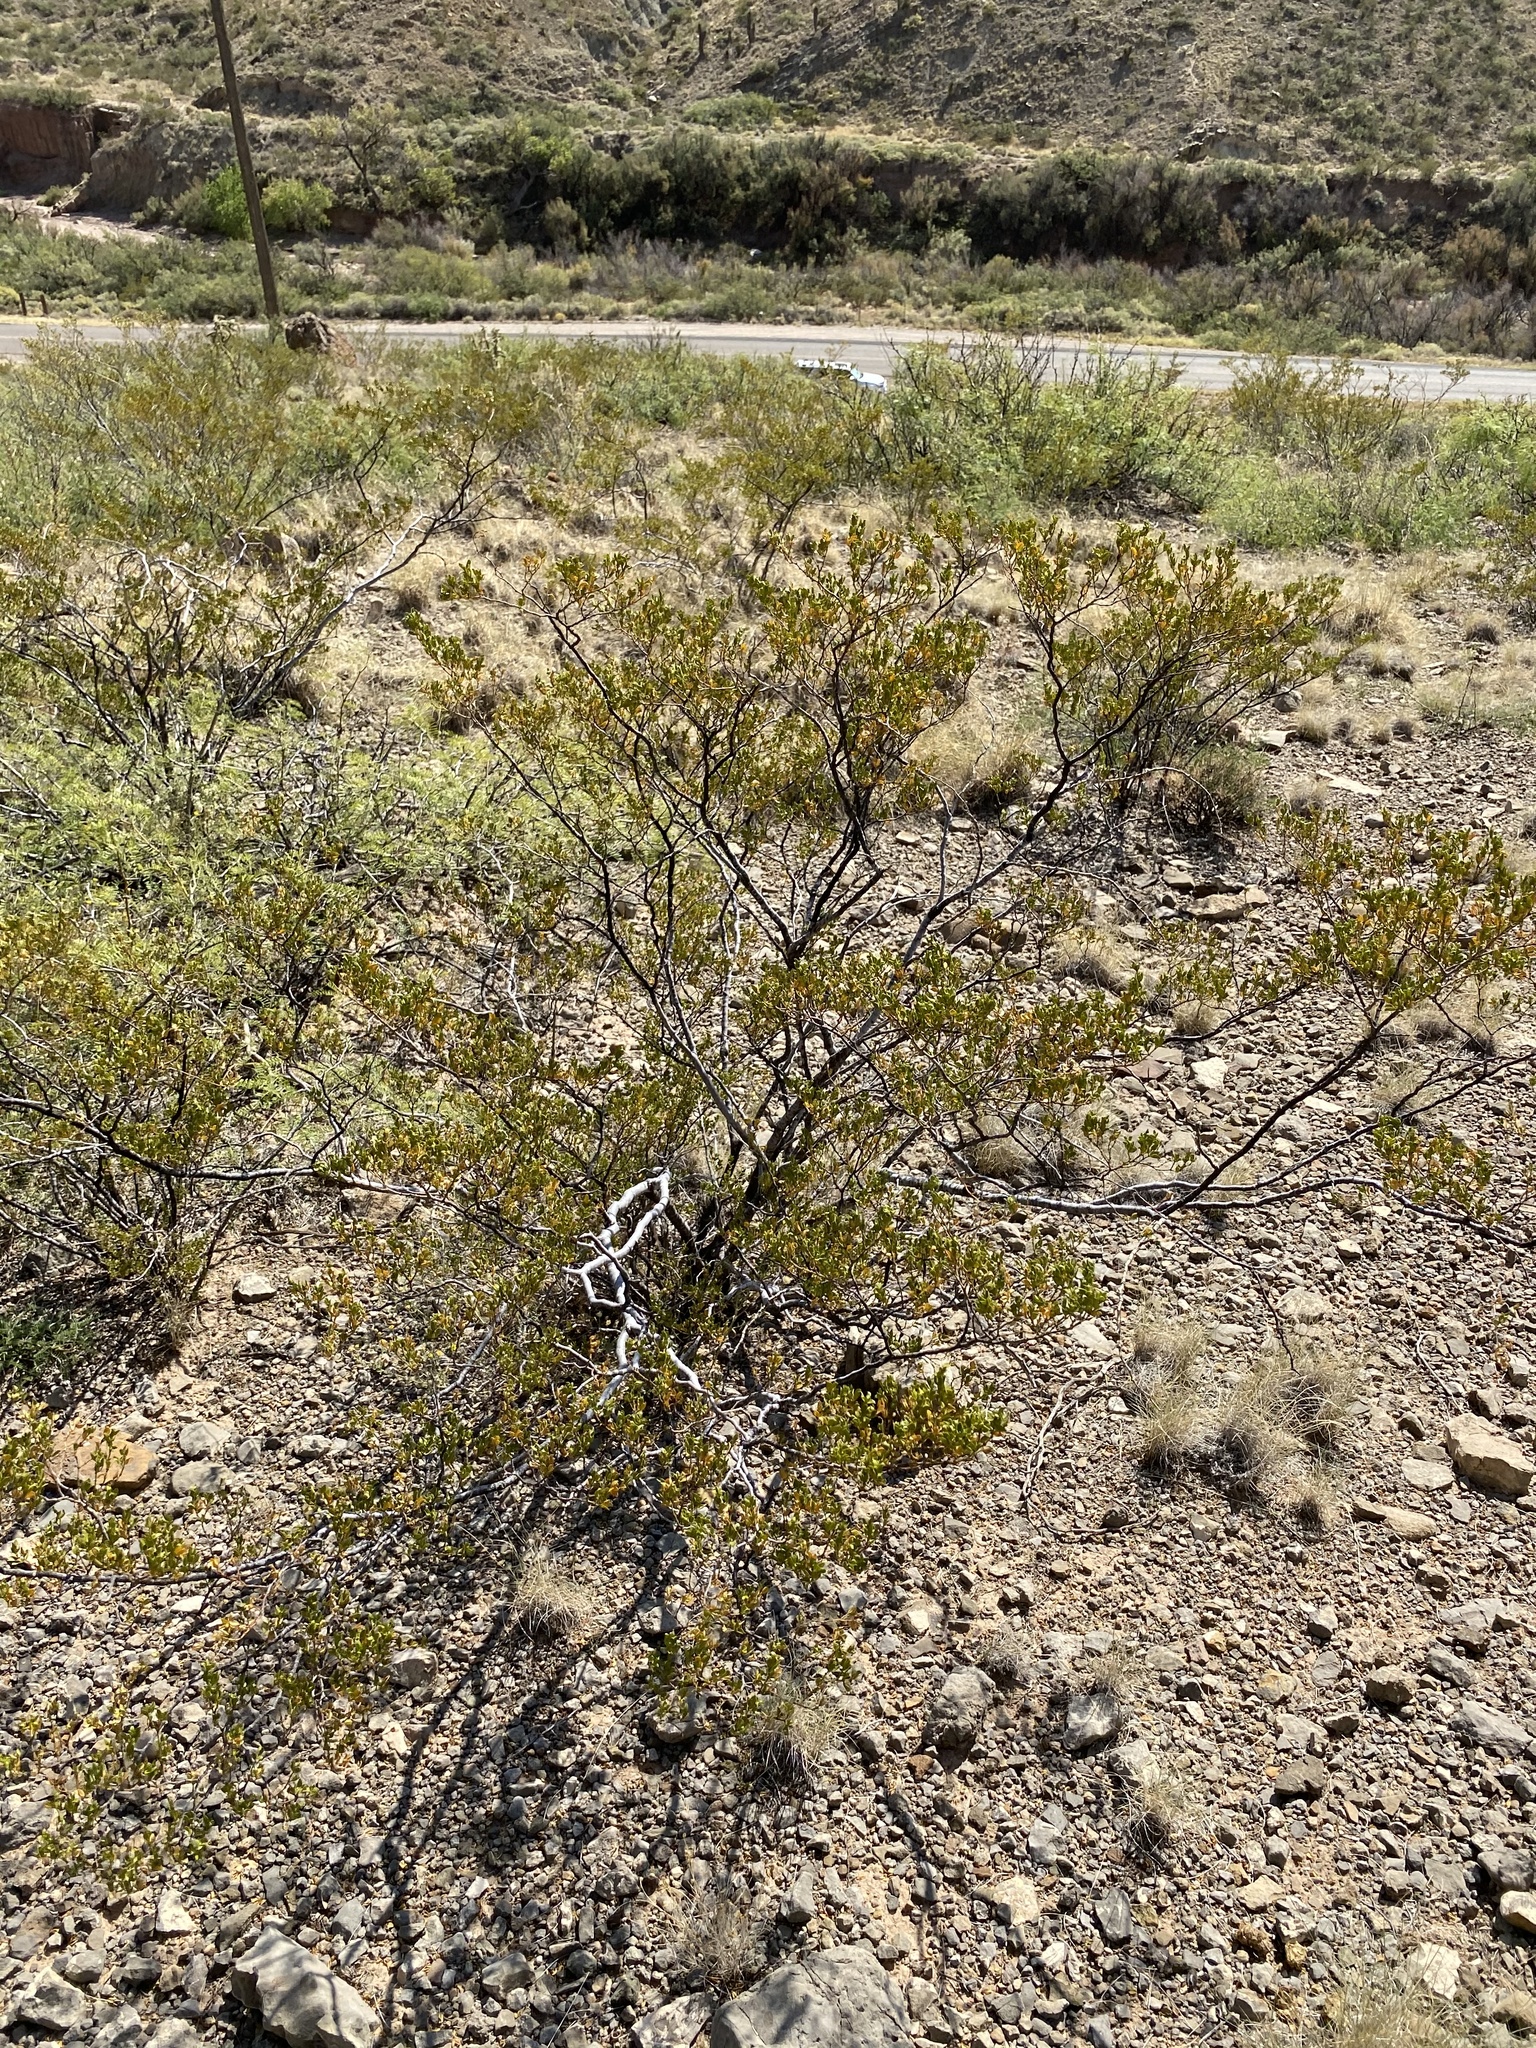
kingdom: Plantae
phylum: Tracheophyta
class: Magnoliopsida
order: Zygophyllales
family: Zygophyllaceae
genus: Larrea
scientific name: Larrea tridentata
